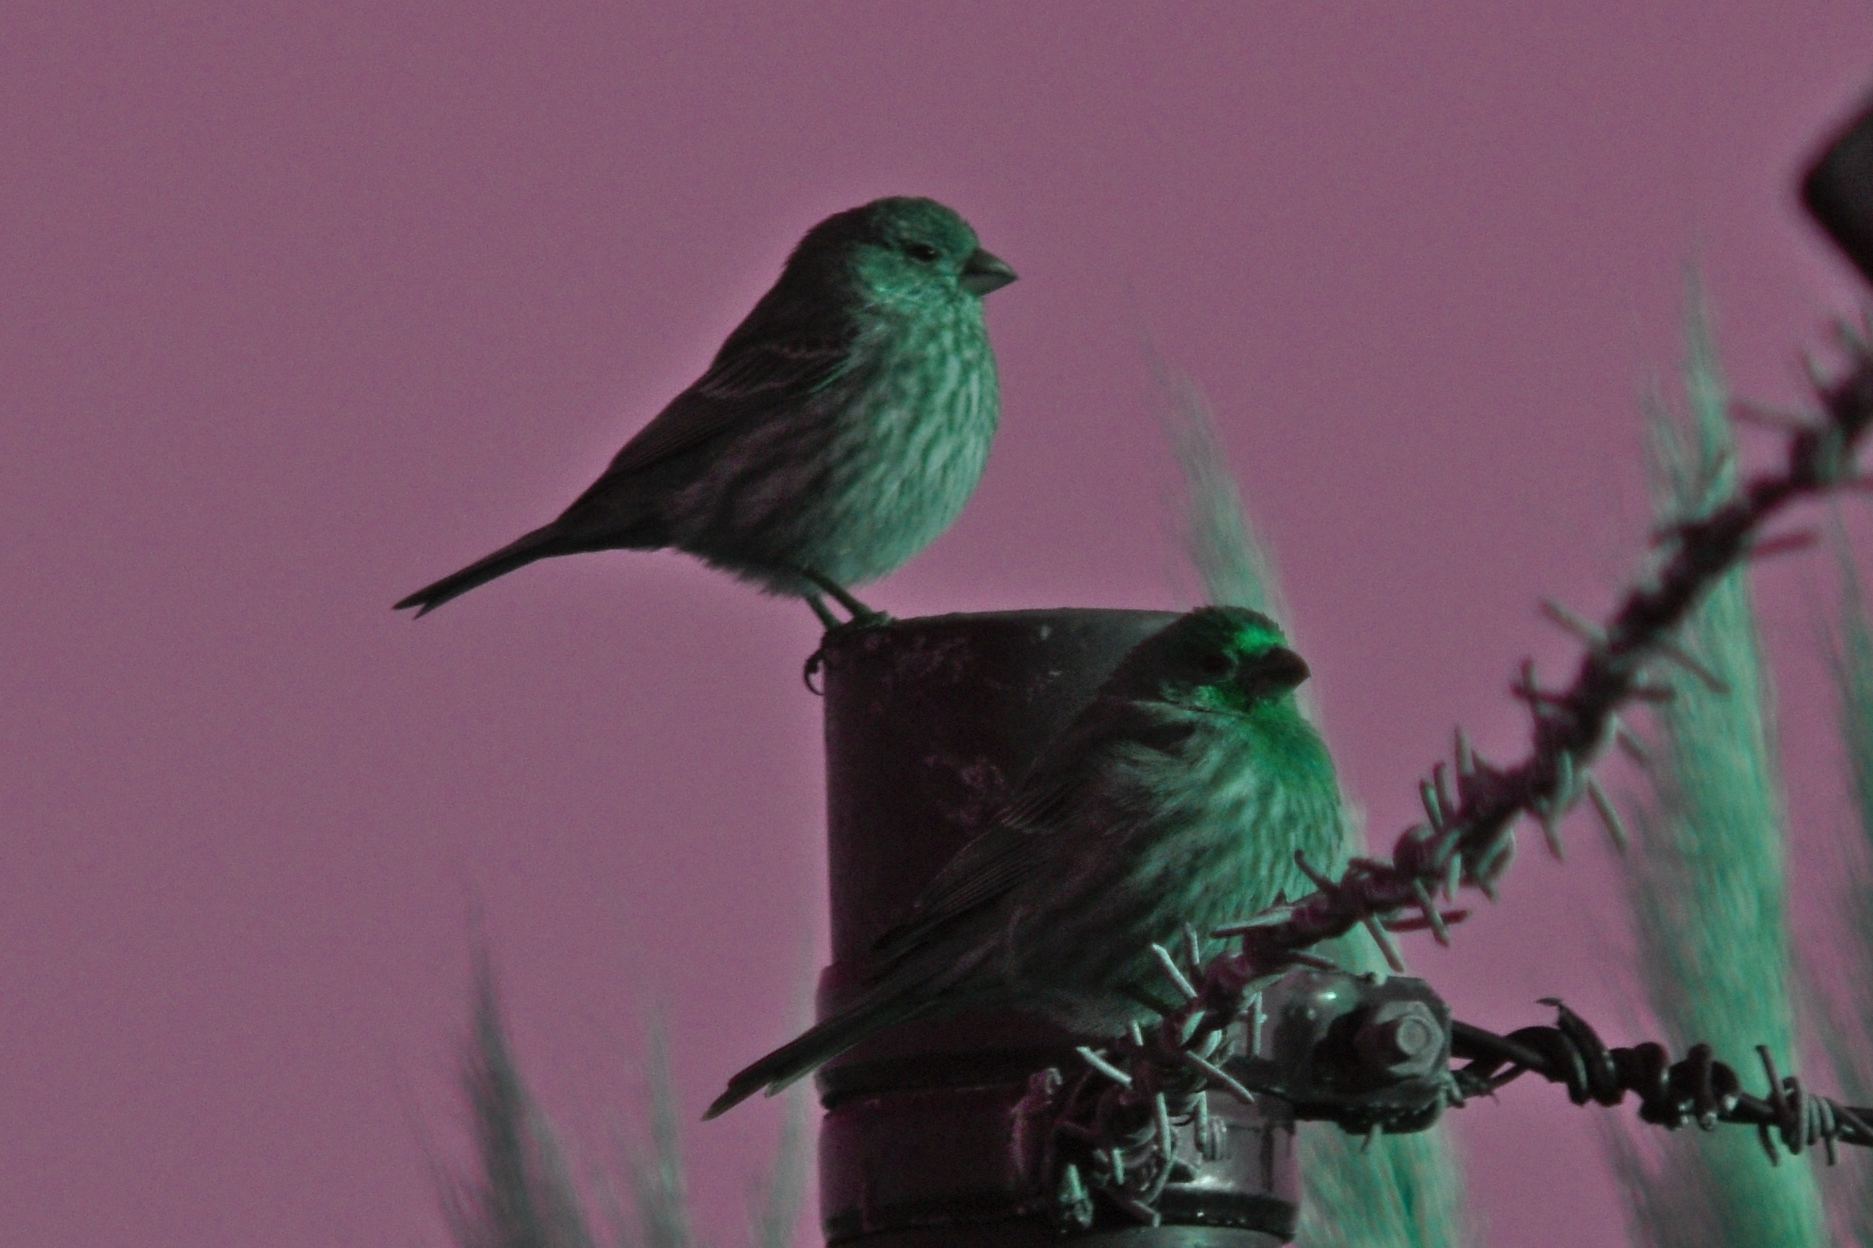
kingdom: Animalia
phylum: Chordata
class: Aves
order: Passeriformes
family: Fringillidae
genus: Haemorhous
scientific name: Haemorhous mexicanus
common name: House finch
